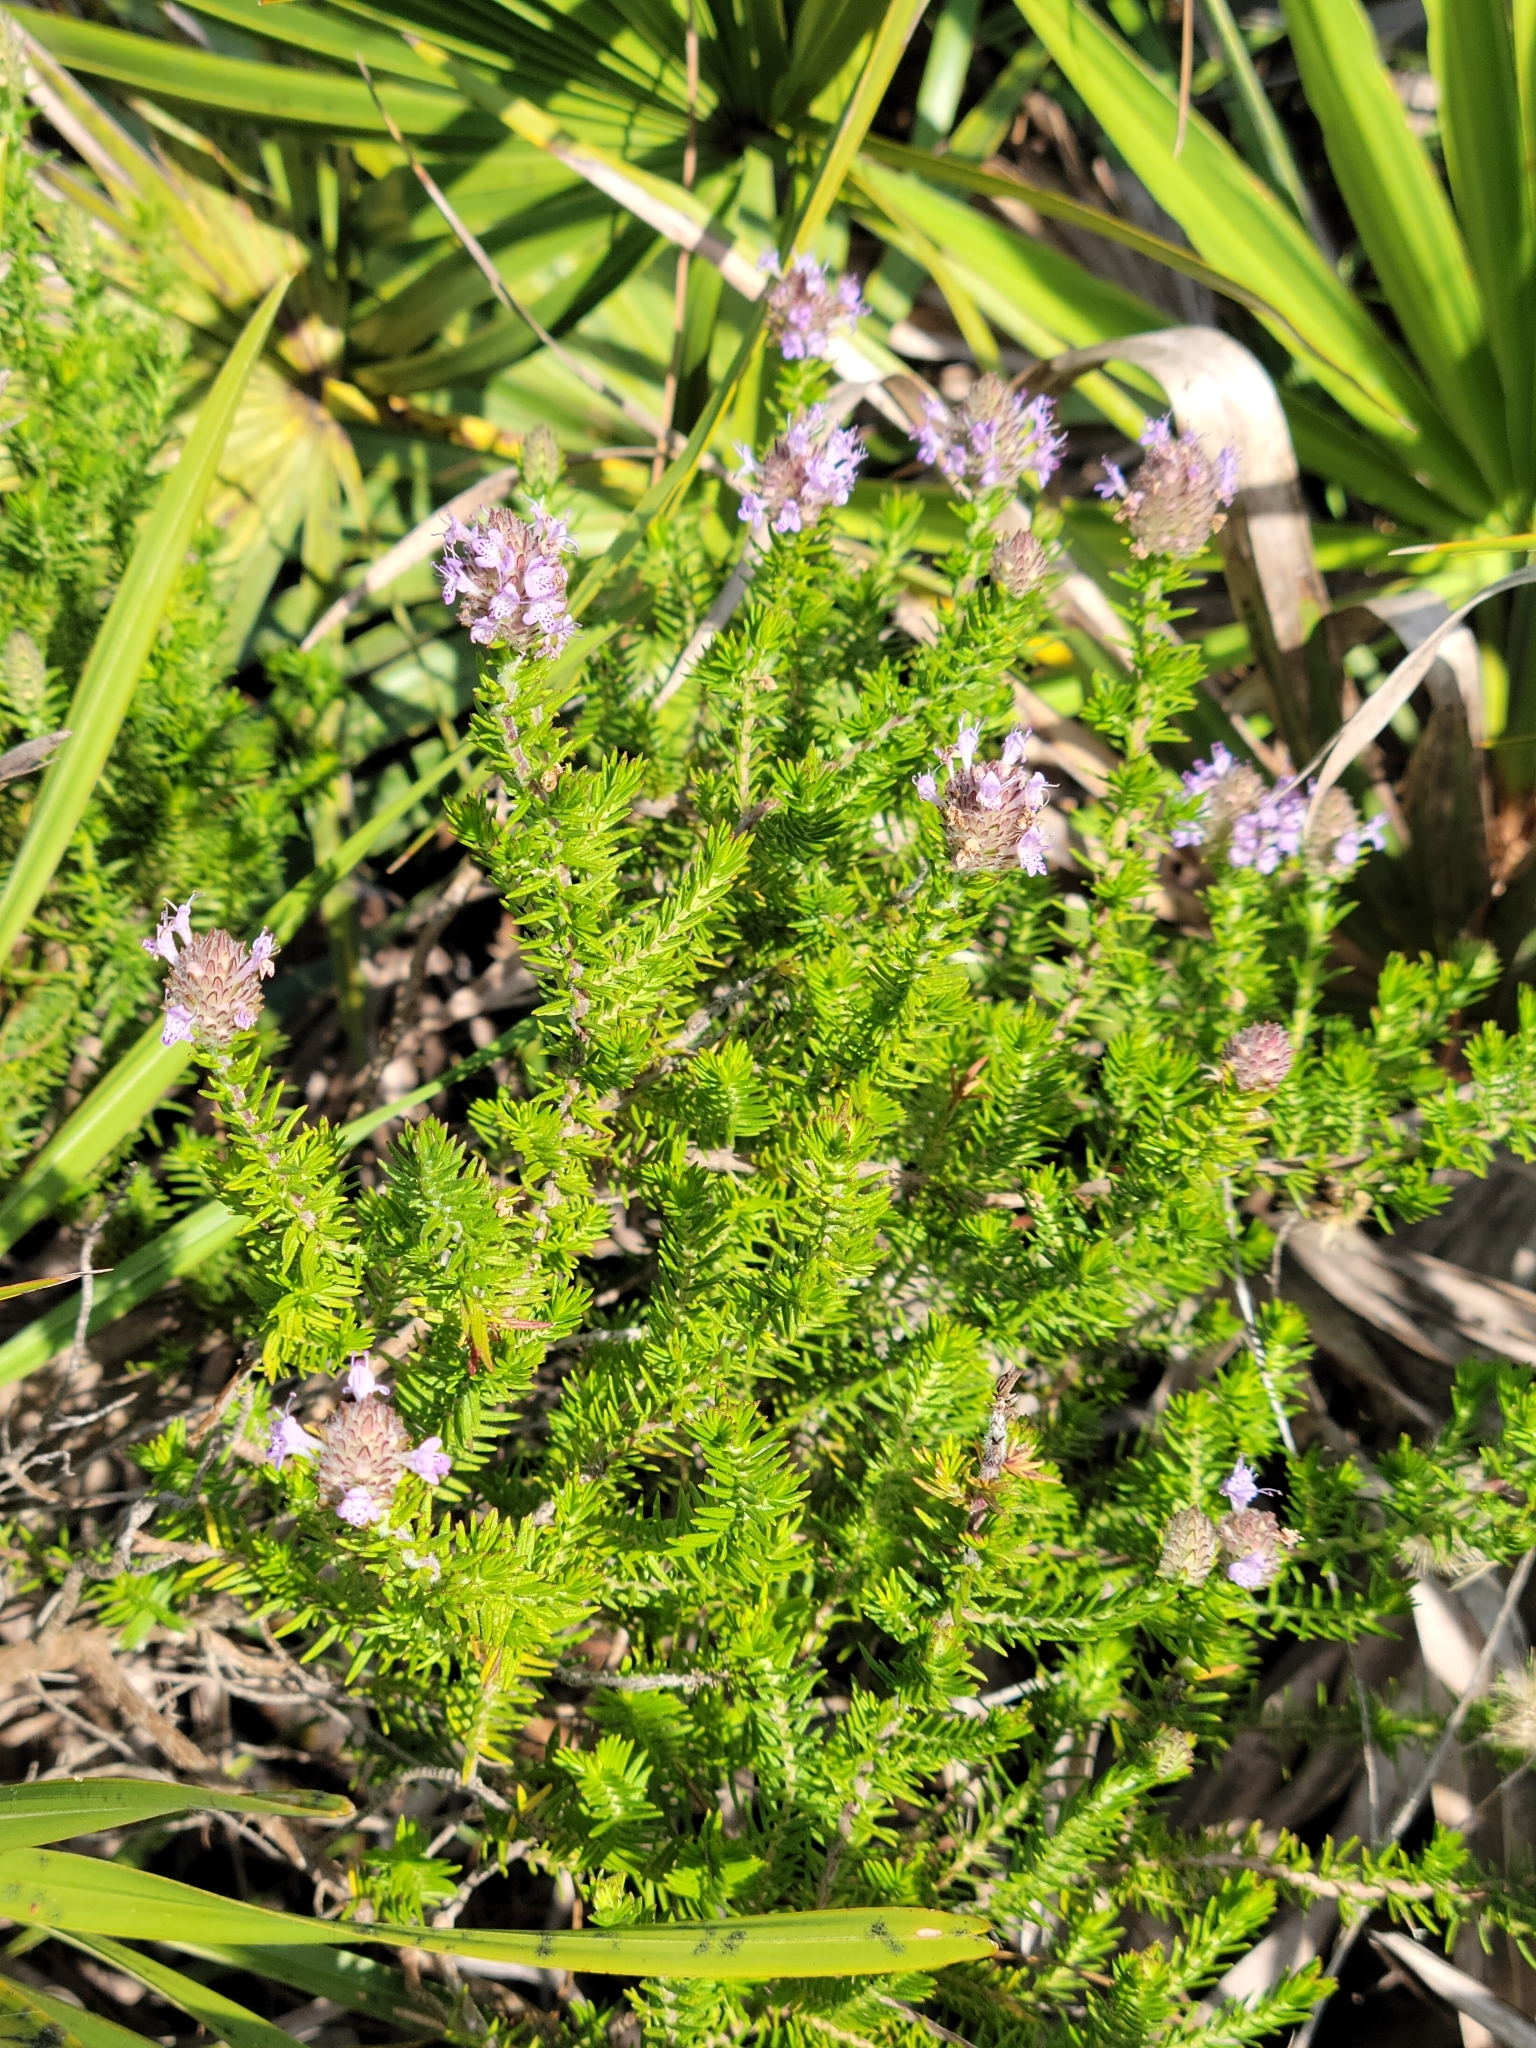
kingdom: Plantae
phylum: Tracheophyta
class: Magnoliopsida
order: Lamiales
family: Lamiaceae
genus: Piloblephis
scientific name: Piloblephis rigida
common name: Wild pennyroyal
